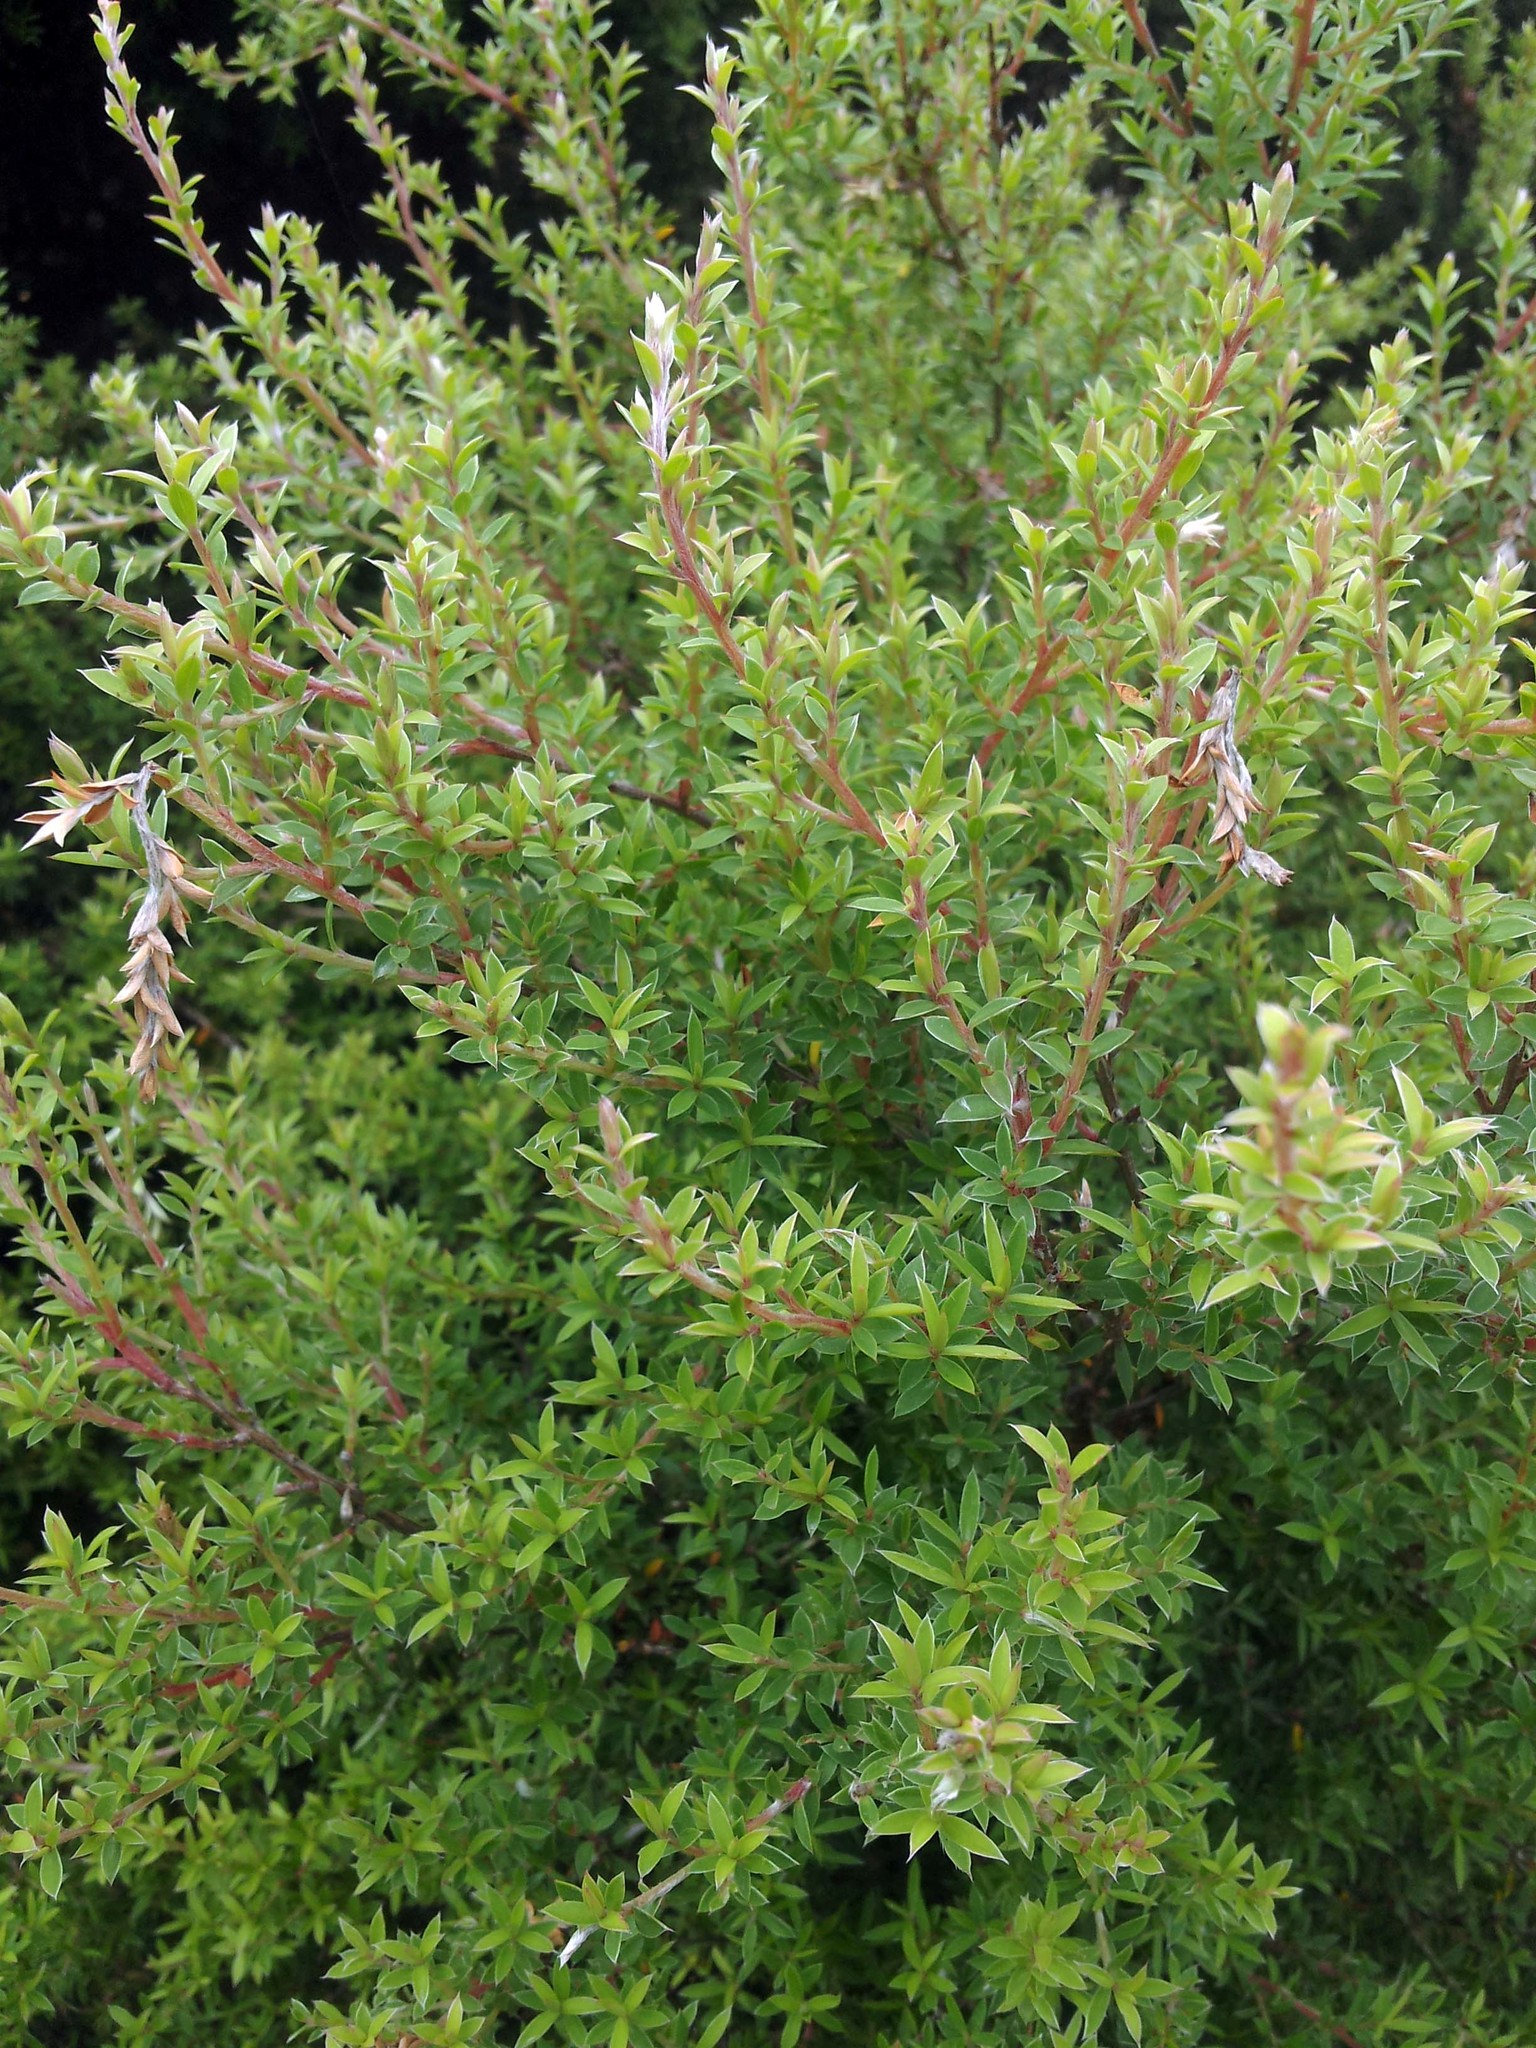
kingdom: Plantae
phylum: Tracheophyta
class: Magnoliopsida
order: Myrtales
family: Myrtaceae
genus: Leptospermum
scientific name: Leptospermum scoparium
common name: Broom tea-tree
